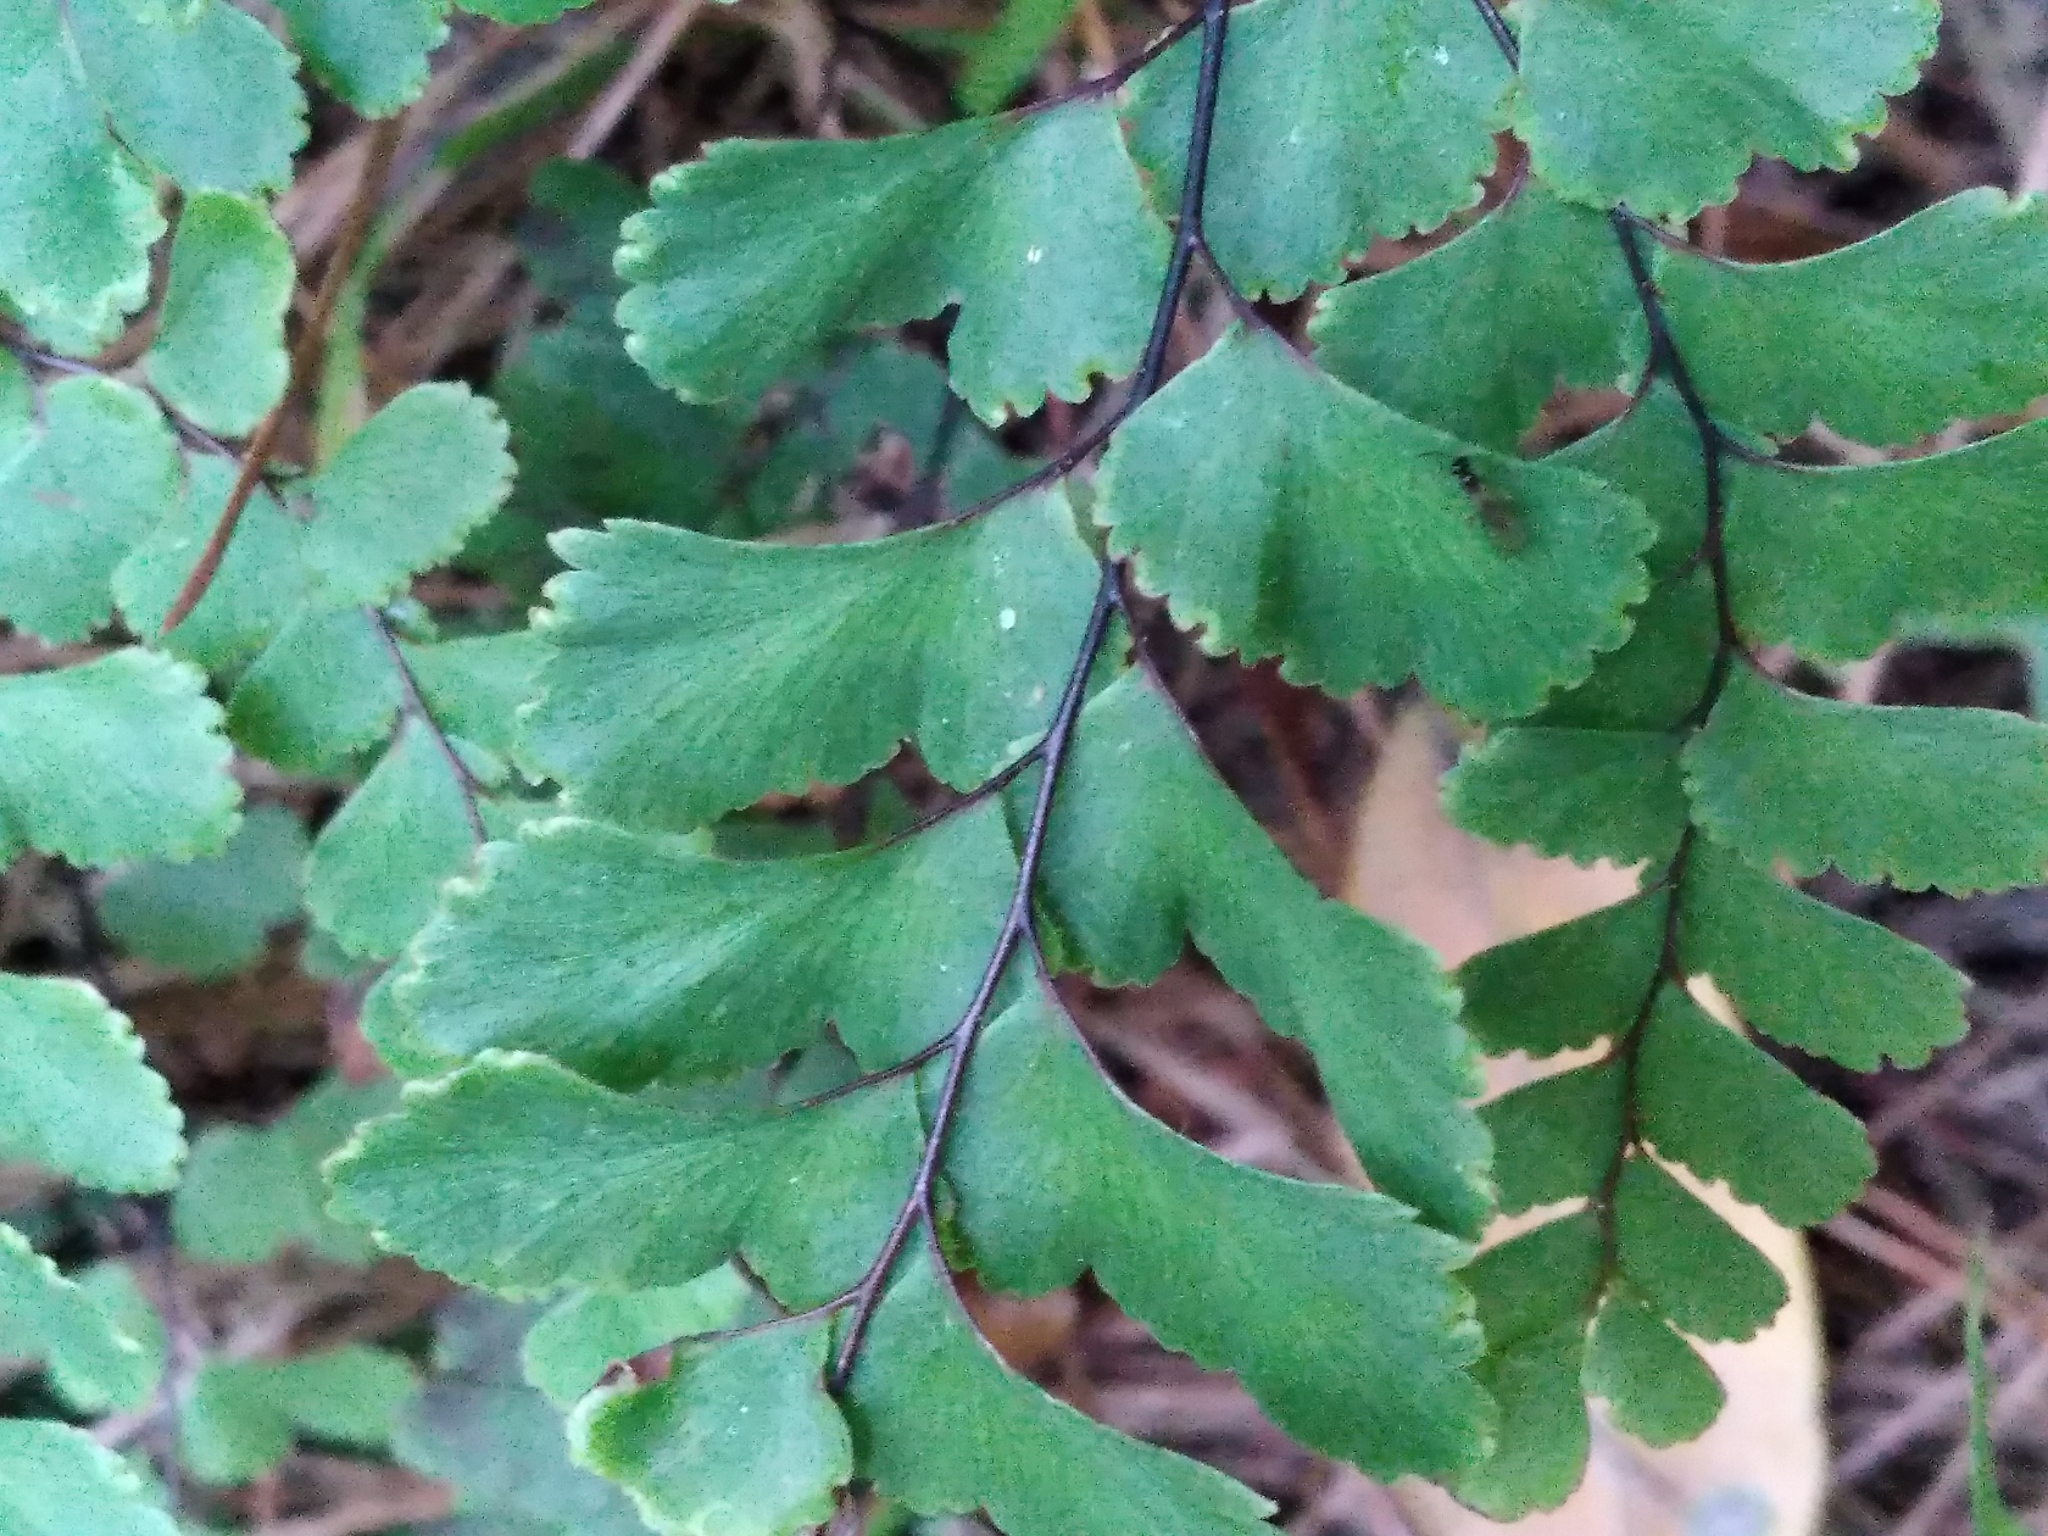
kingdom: Plantae
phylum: Tracheophyta
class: Polypodiopsida
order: Polypodiales
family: Pteridaceae
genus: Adiantum
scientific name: Adiantum cunninghamii
